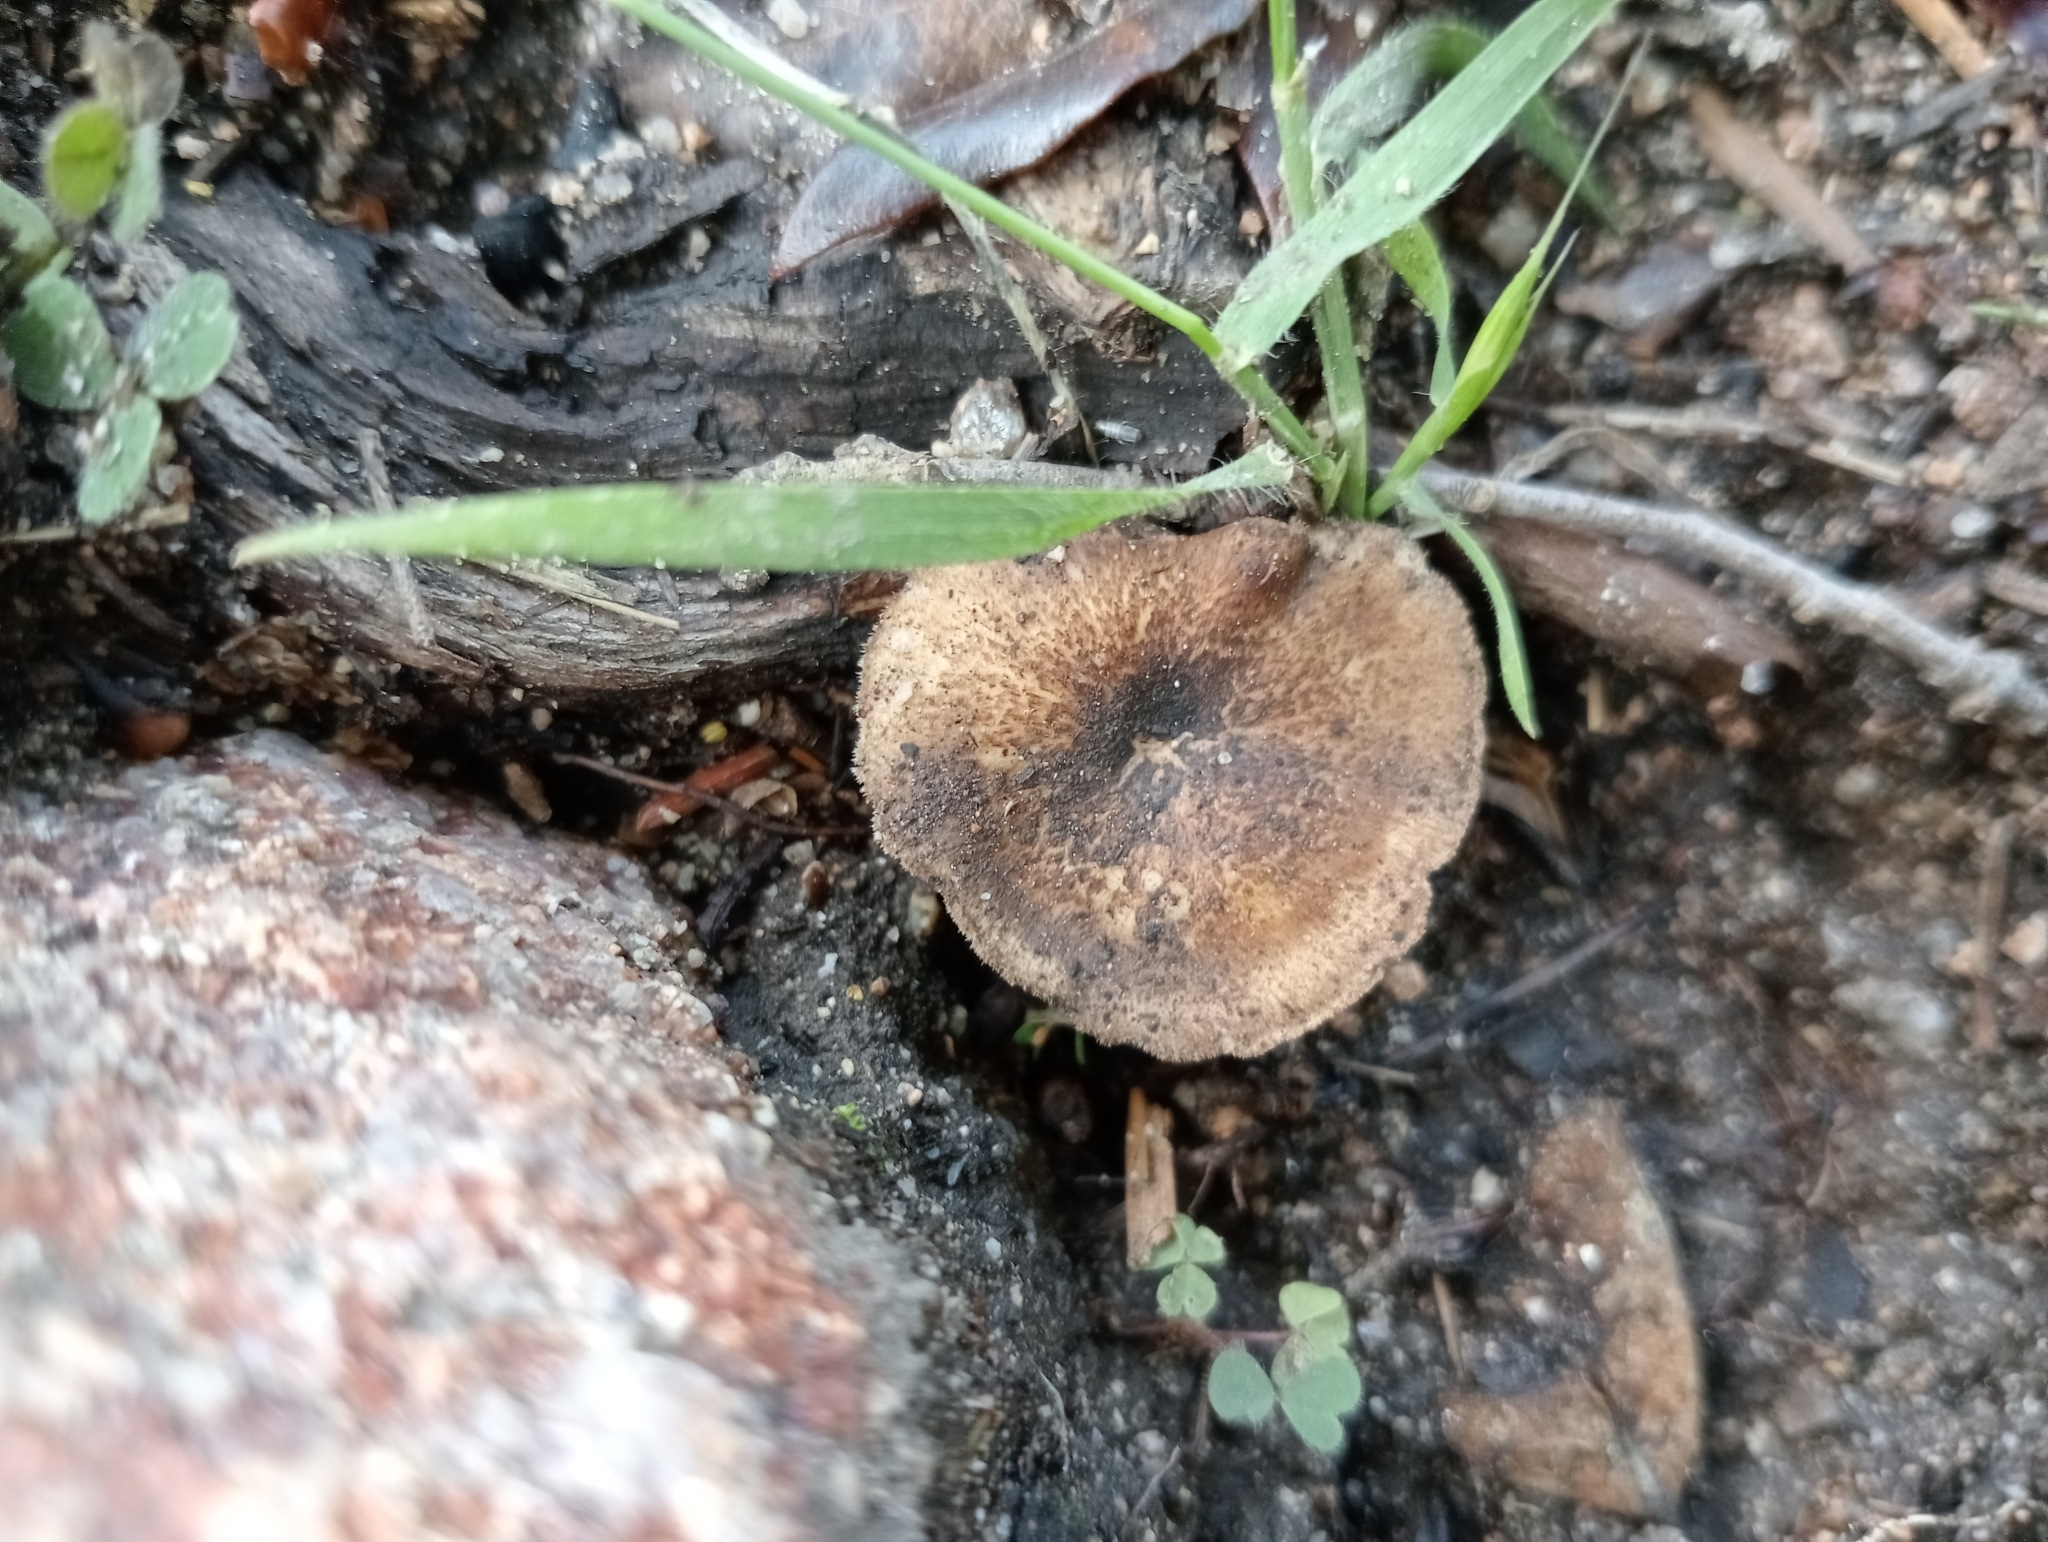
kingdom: Fungi
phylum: Basidiomycota
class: Agaricomycetes
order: Polyporales
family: Polyporaceae
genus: Lentinus
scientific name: Lentinus arcularius
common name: Spring polypore
